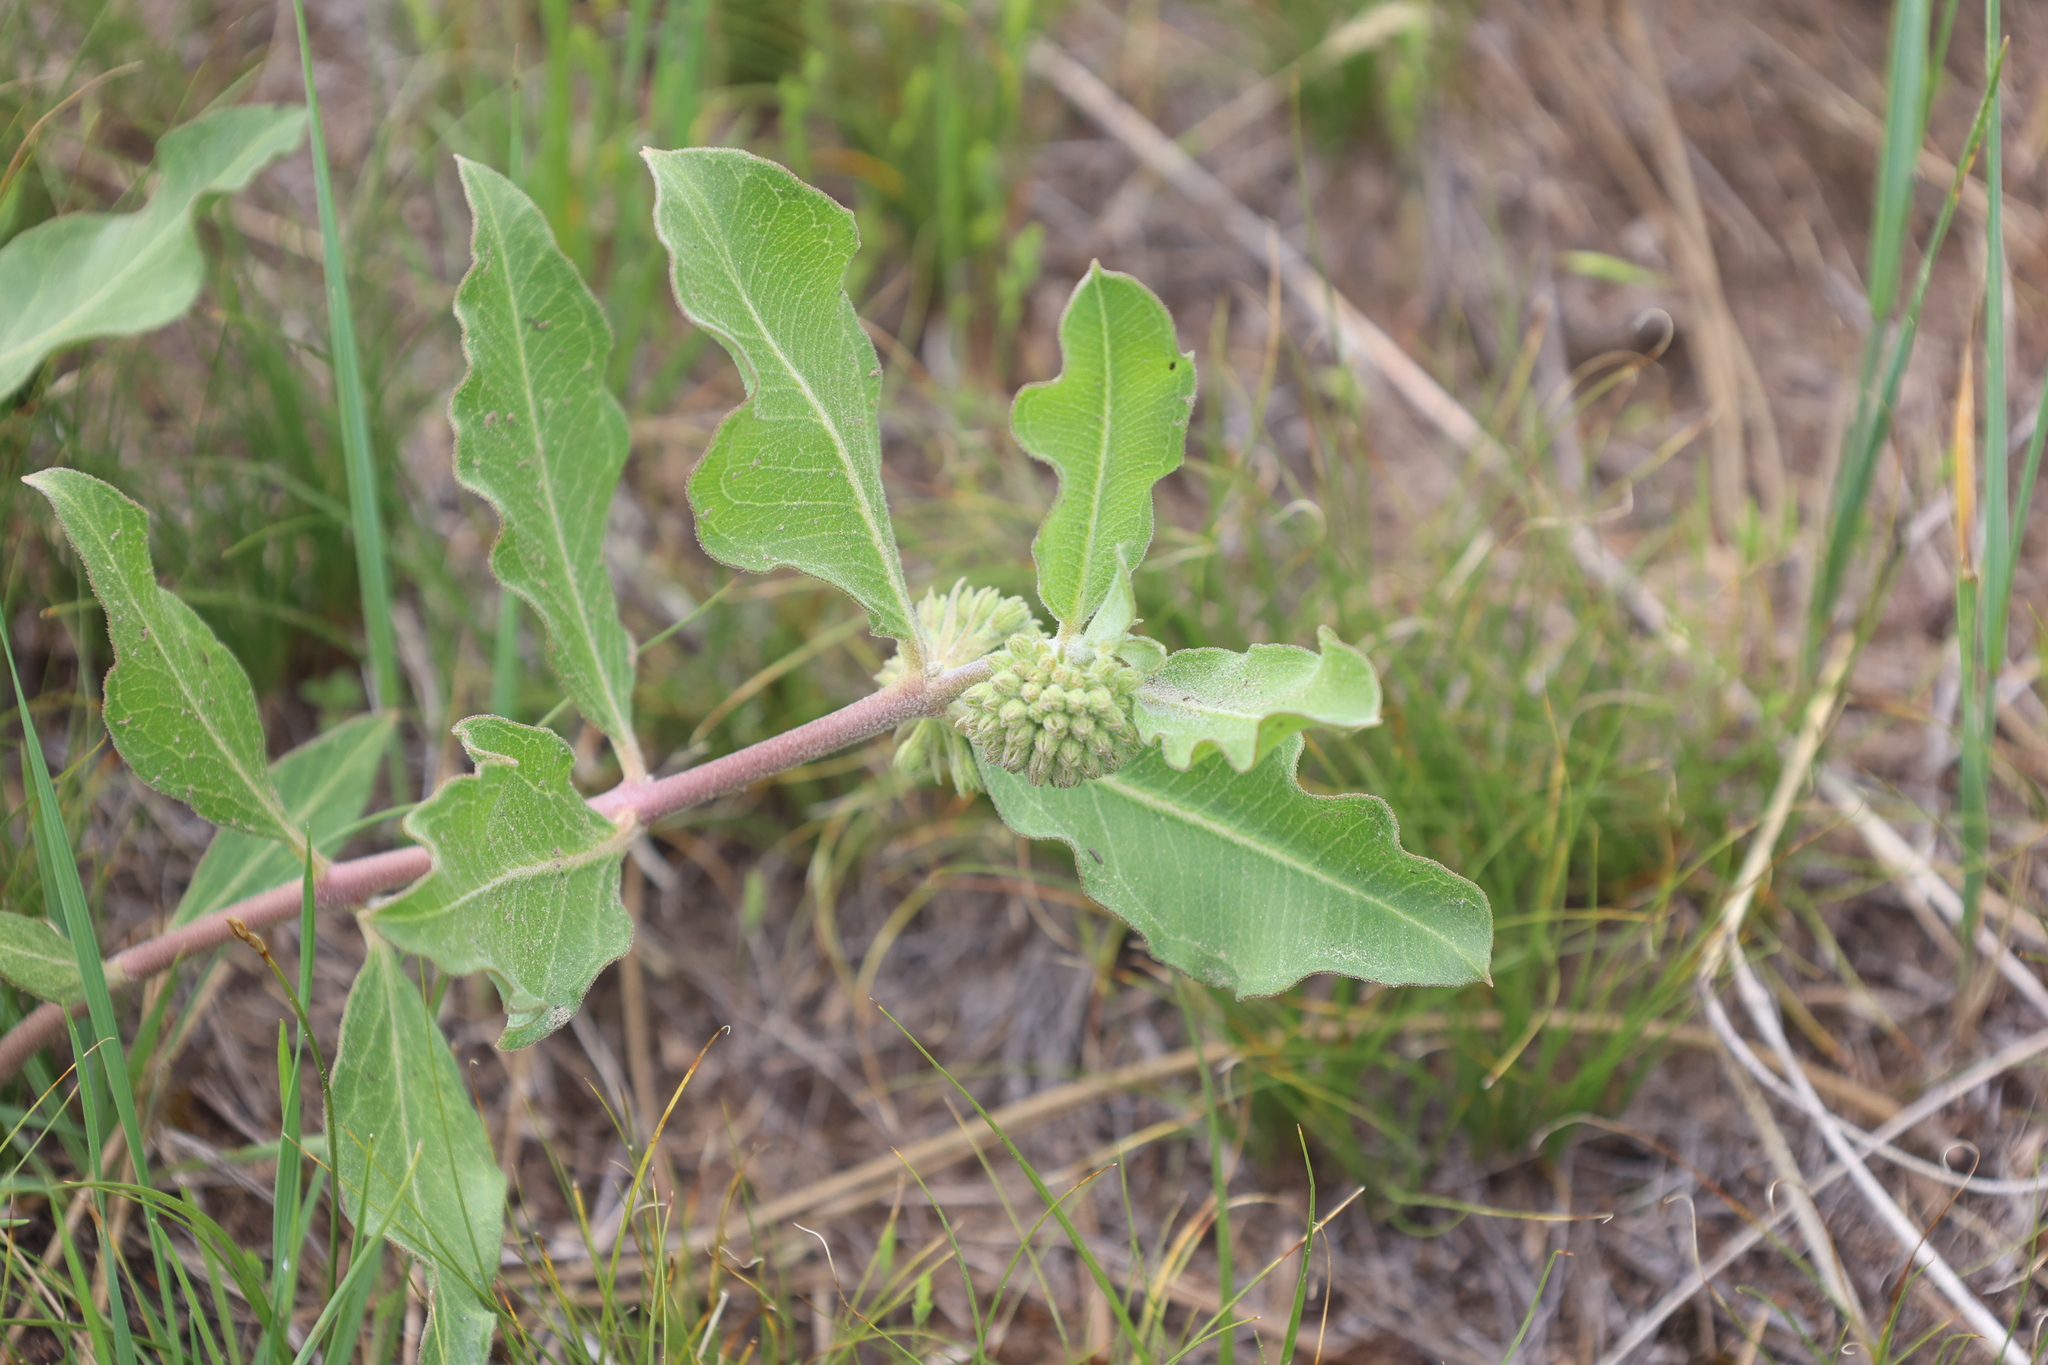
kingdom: Plantae
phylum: Tracheophyta
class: Magnoliopsida
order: Gentianales
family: Apocynaceae
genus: Asclepias
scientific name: Asclepias viridiflora
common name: Green comet milkweed
